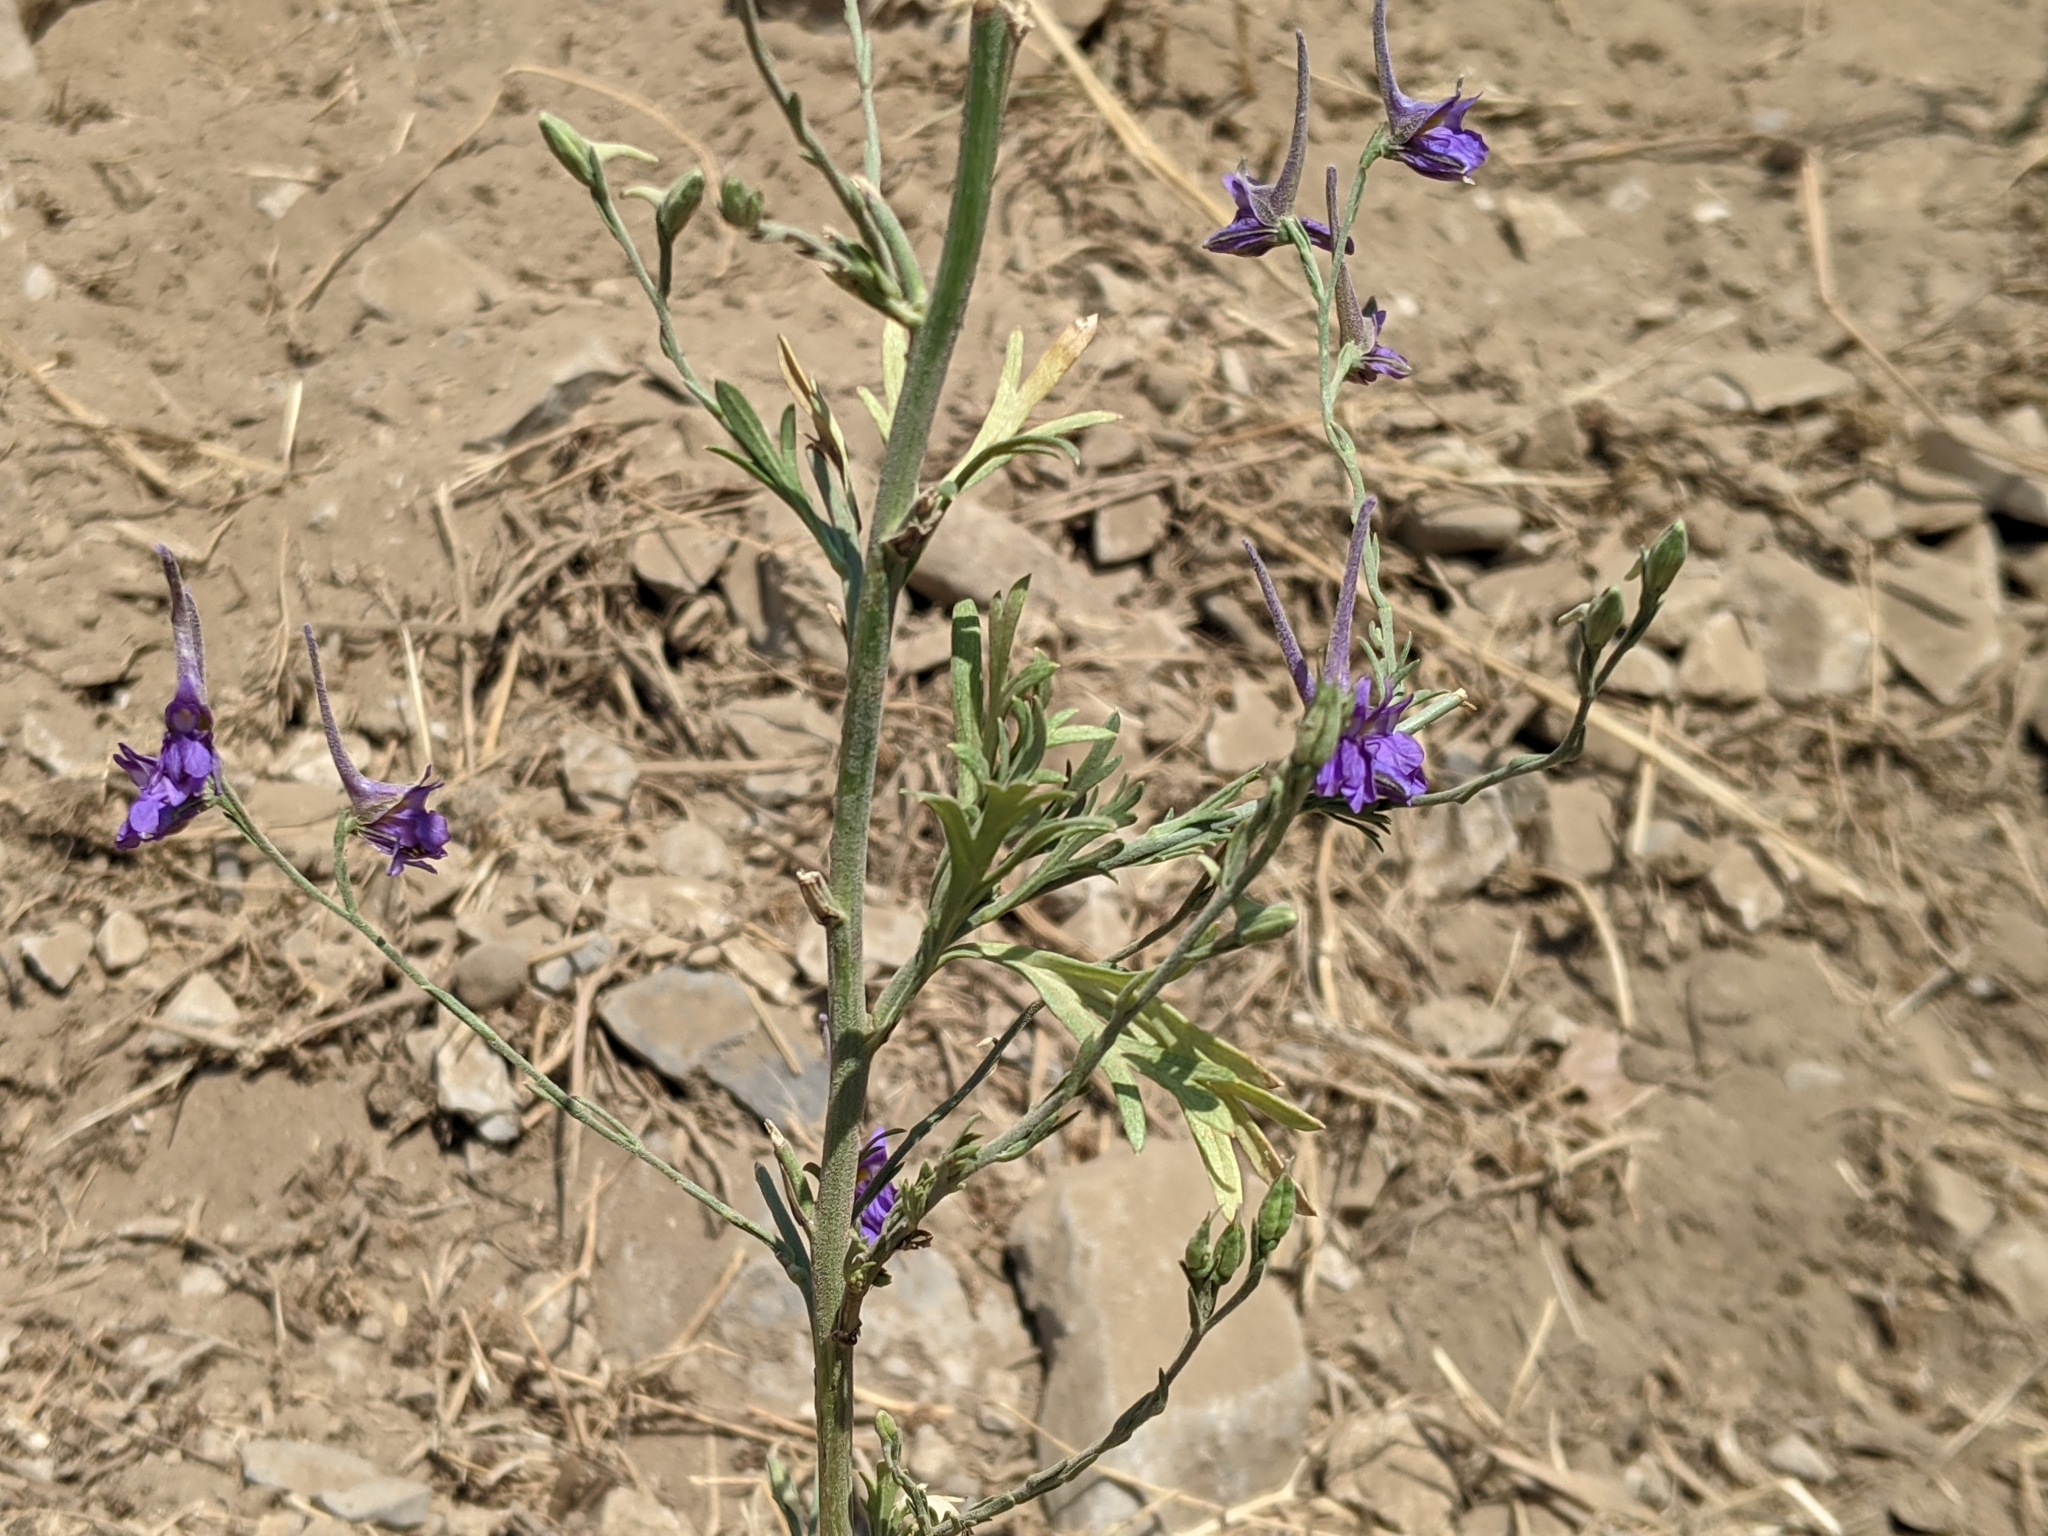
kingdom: Plantae
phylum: Tracheophyta
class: Magnoliopsida
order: Ranunculales
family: Ranunculaceae
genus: Delphinium
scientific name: Delphinium halteratum
